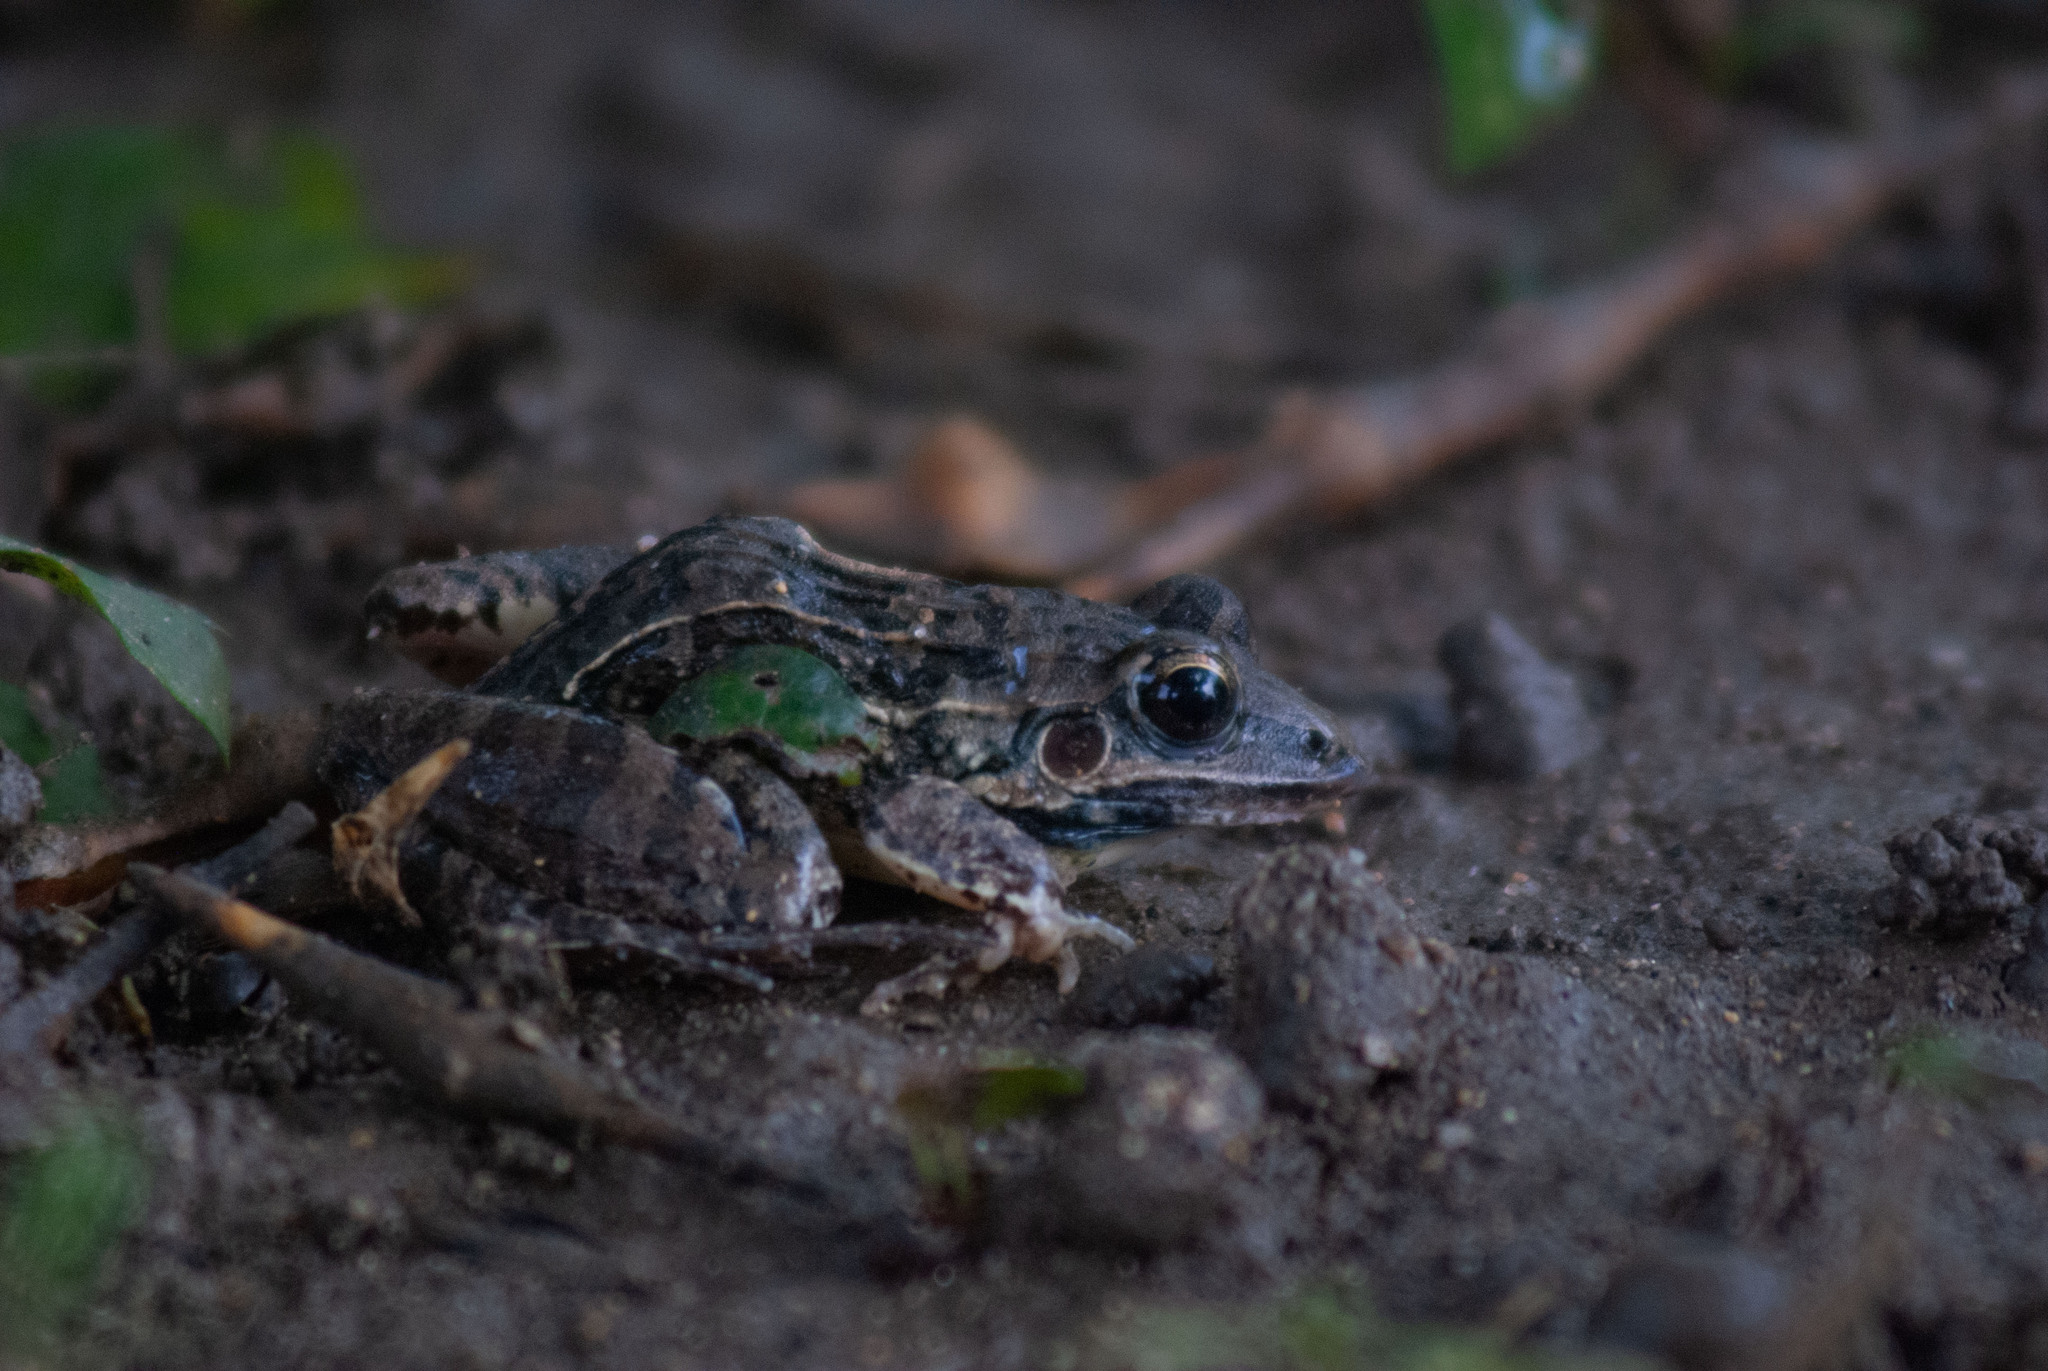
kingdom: Animalia
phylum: Chordata
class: Amphibia
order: Anura
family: Leptodactylidae
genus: Leptodactylus
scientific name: Leptodactylus fuscus
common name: Rufous frog
